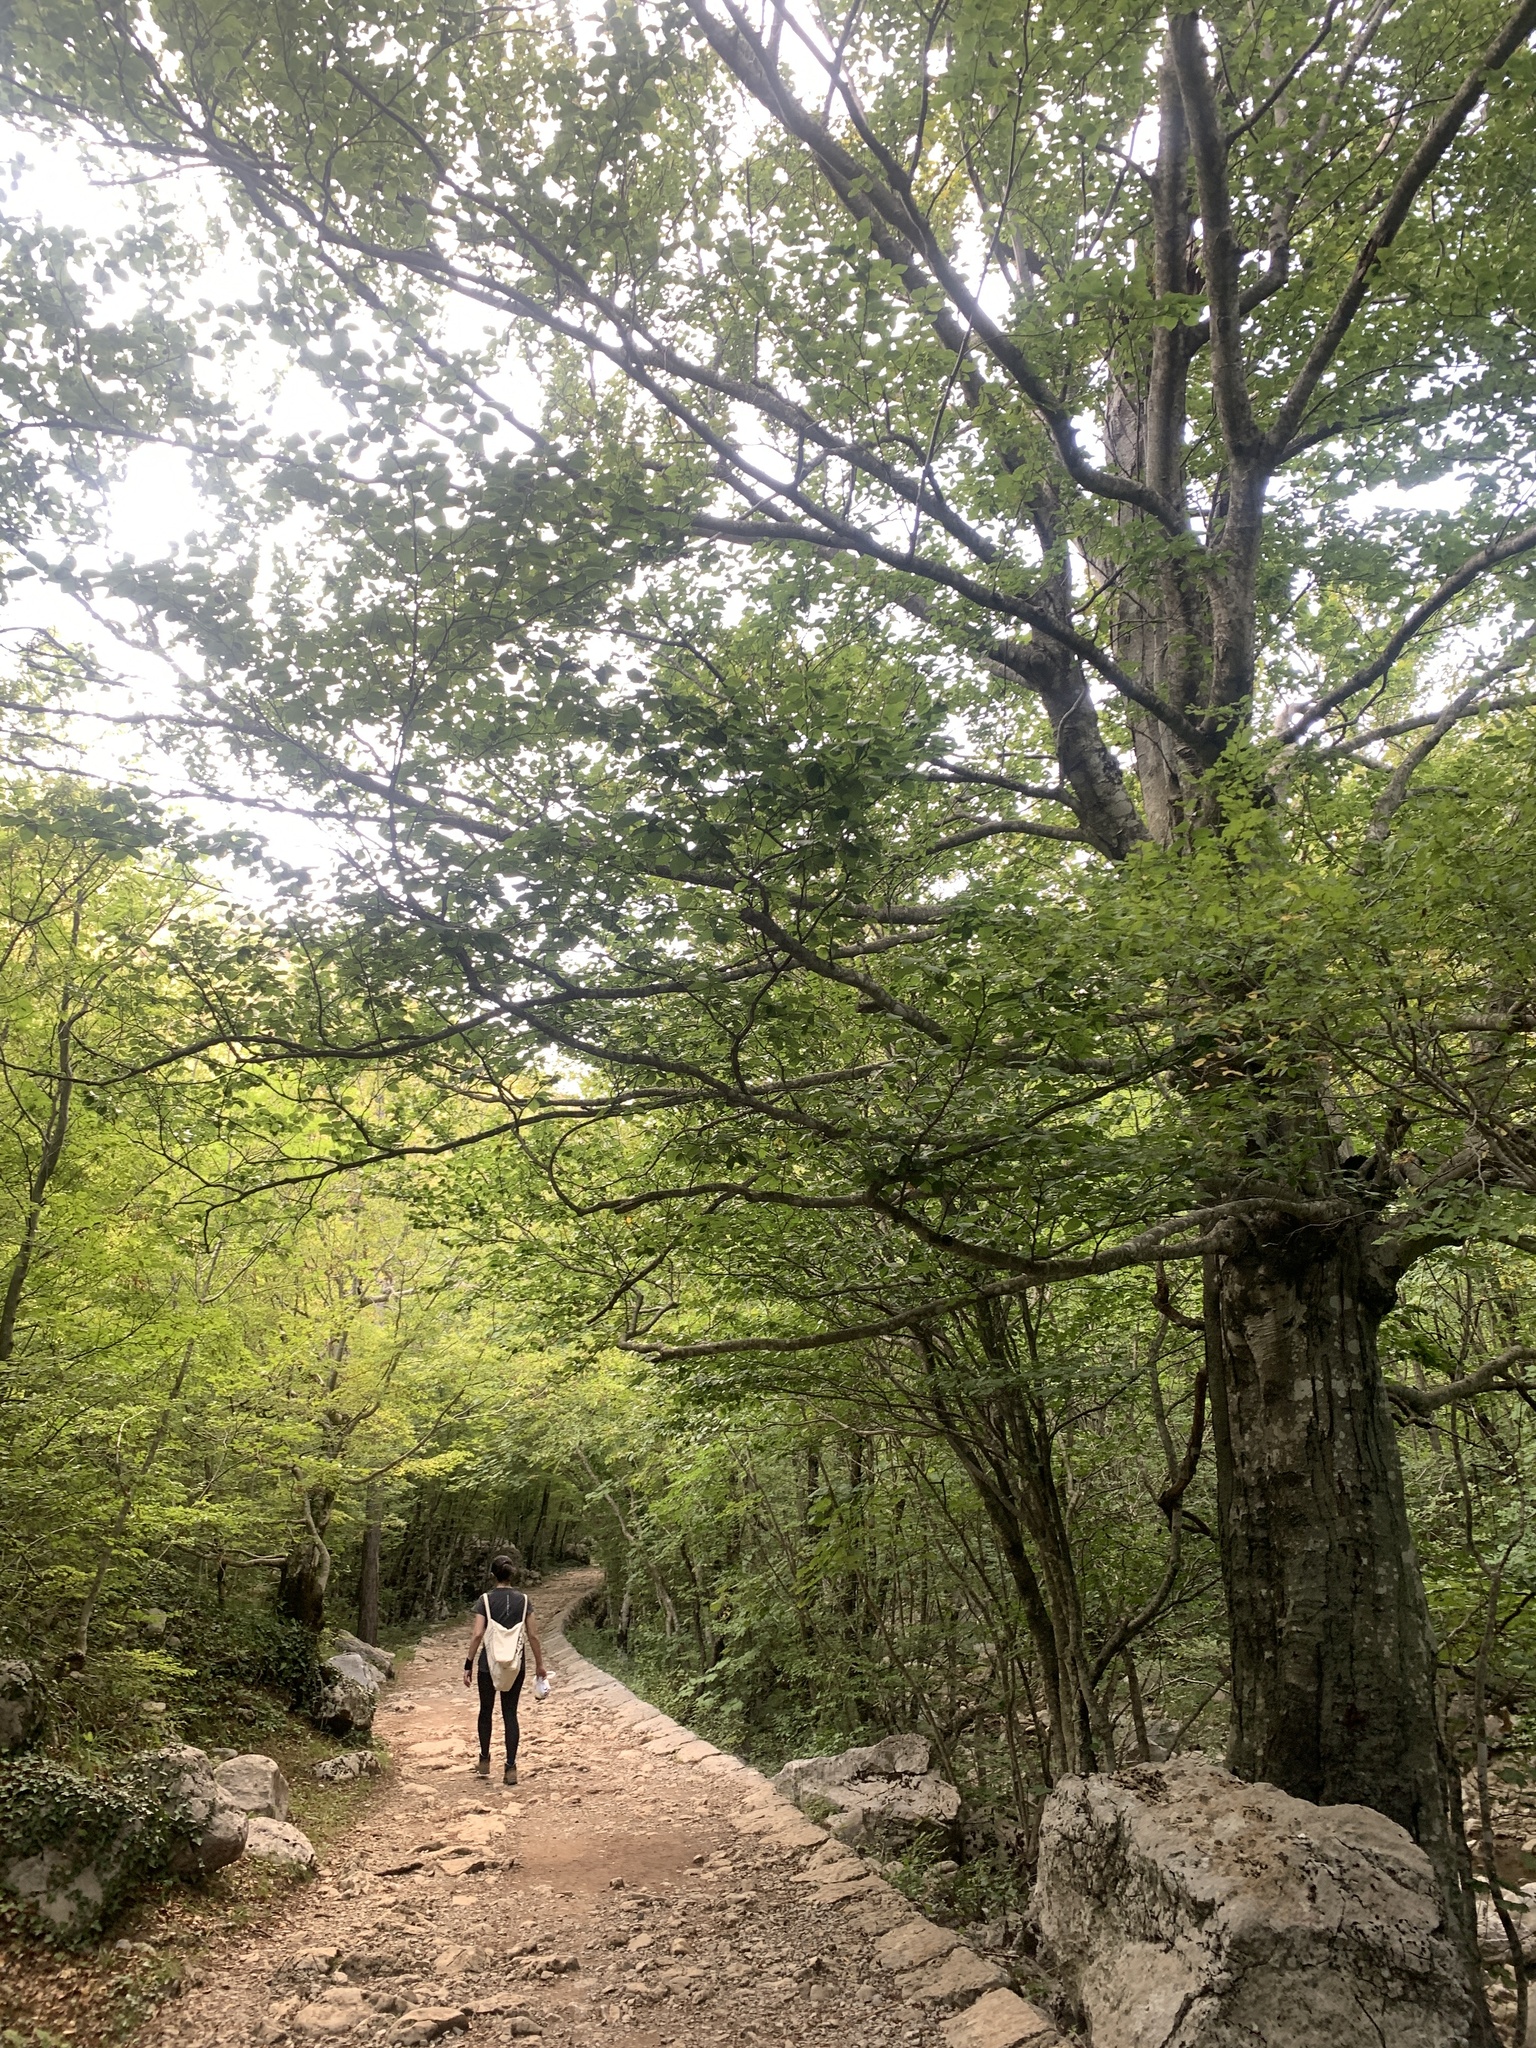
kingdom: Plantae
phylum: Tracheophyta
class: Magnoliopsida
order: Fagales
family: Fagaceae
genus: Fagus
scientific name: Fagus sylvatica
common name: Beech
